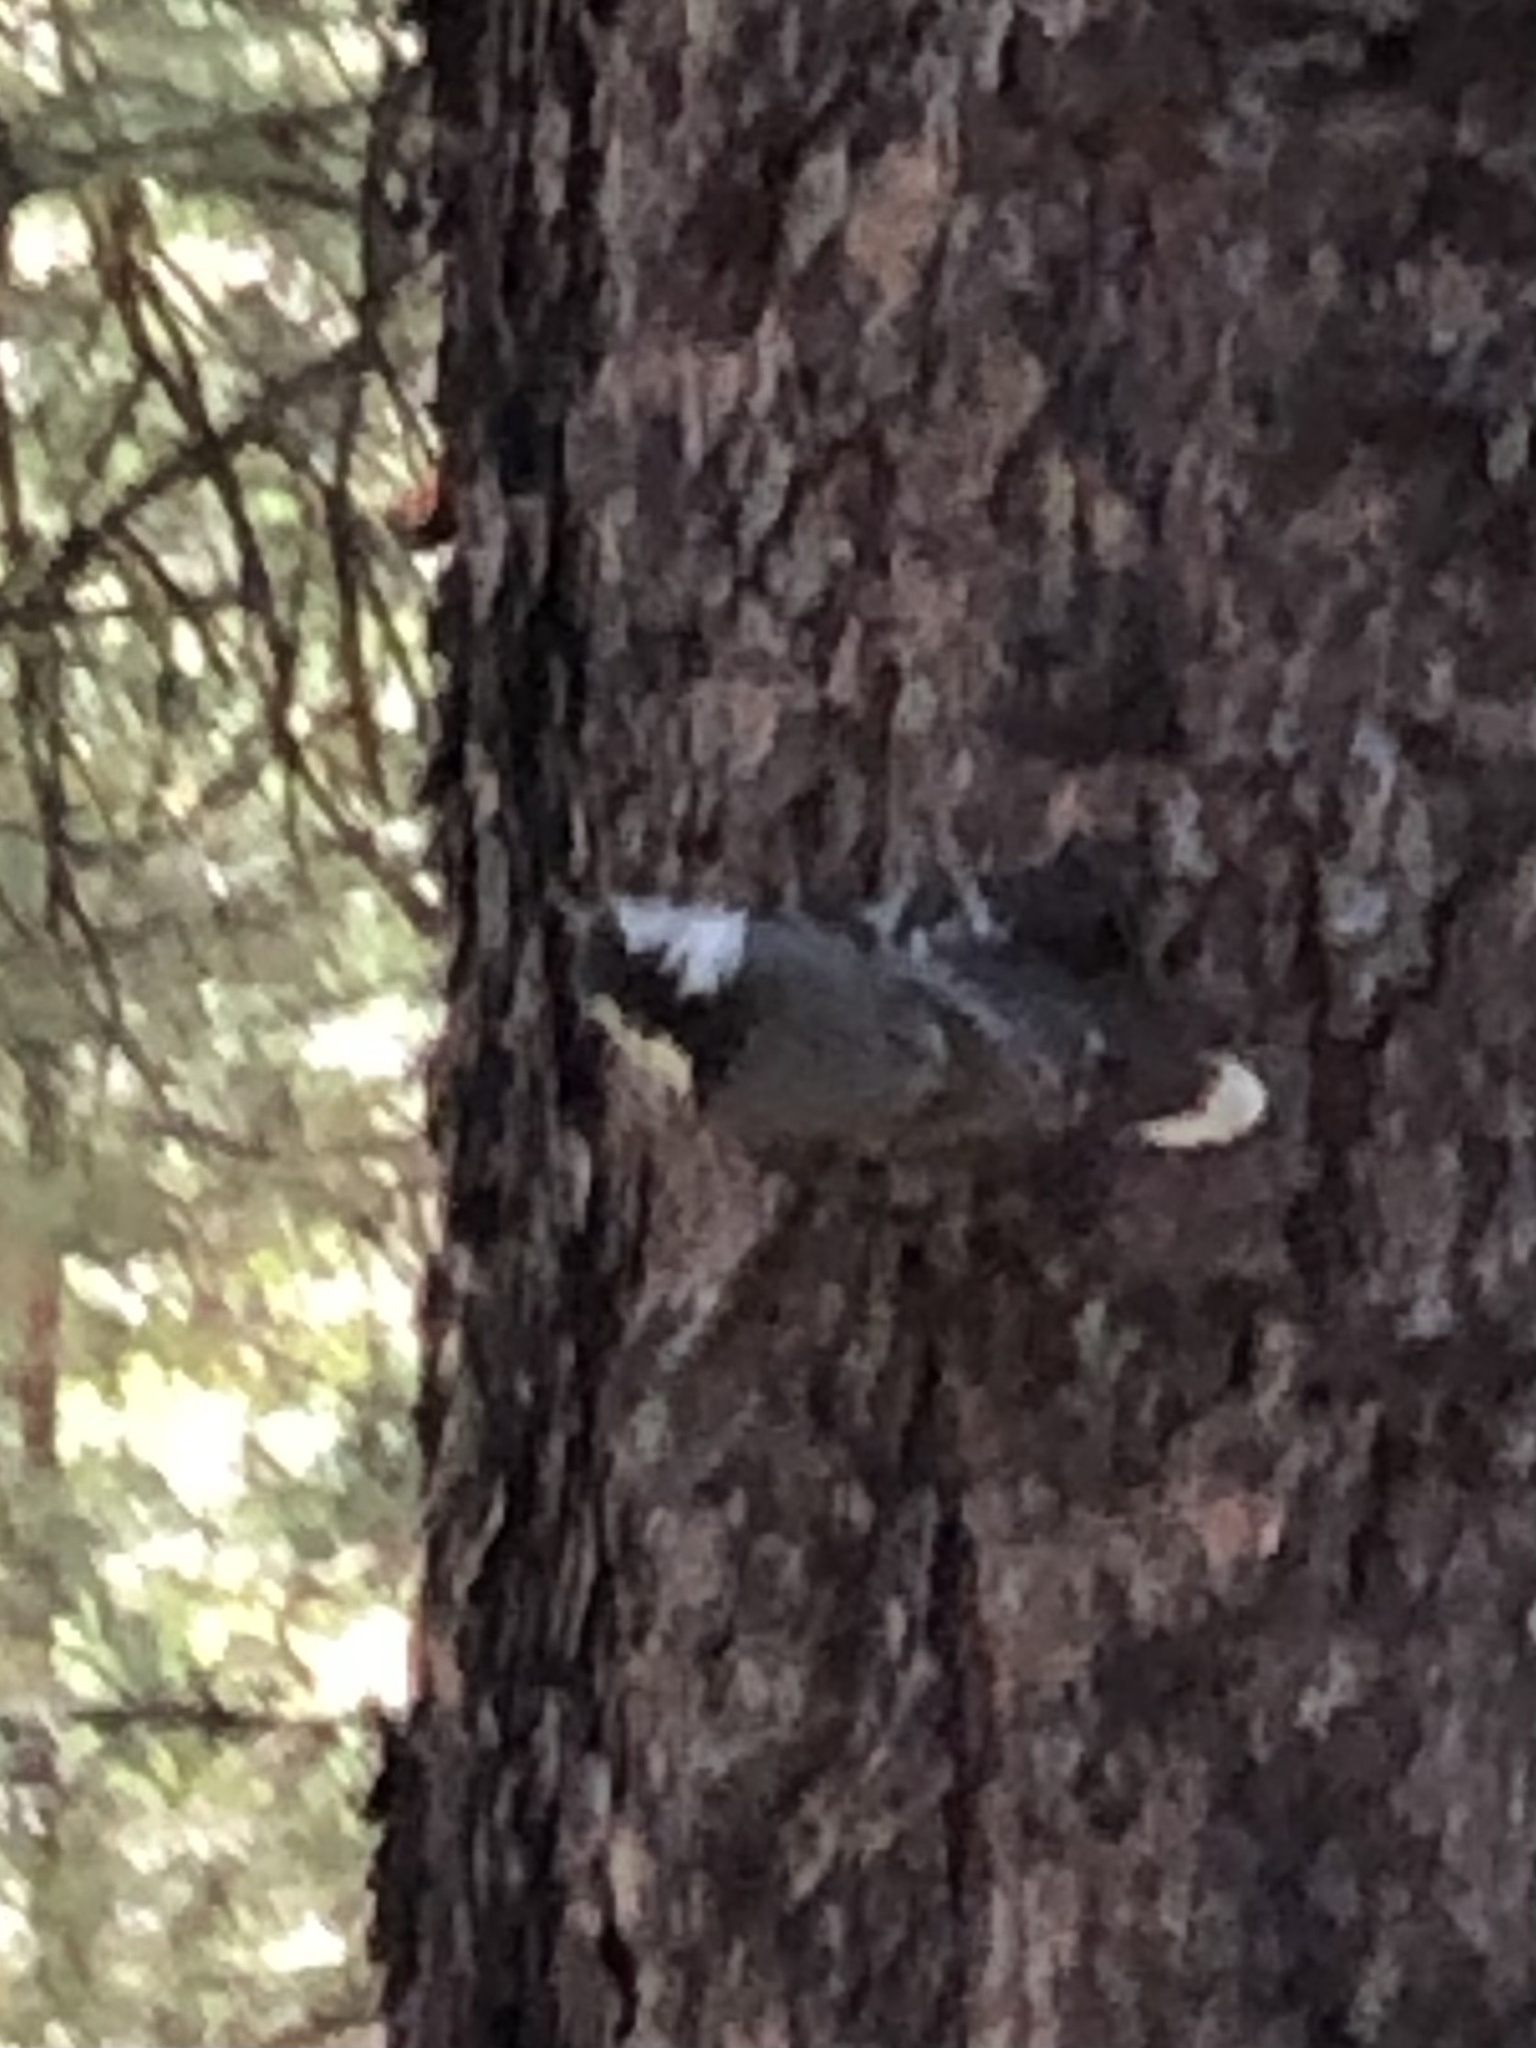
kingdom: Animalia
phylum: Chordata
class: Aves
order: Passeriformes
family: Sittidae
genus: Sitta
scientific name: Sitta carolinensis
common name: White-breasted nuthatch
